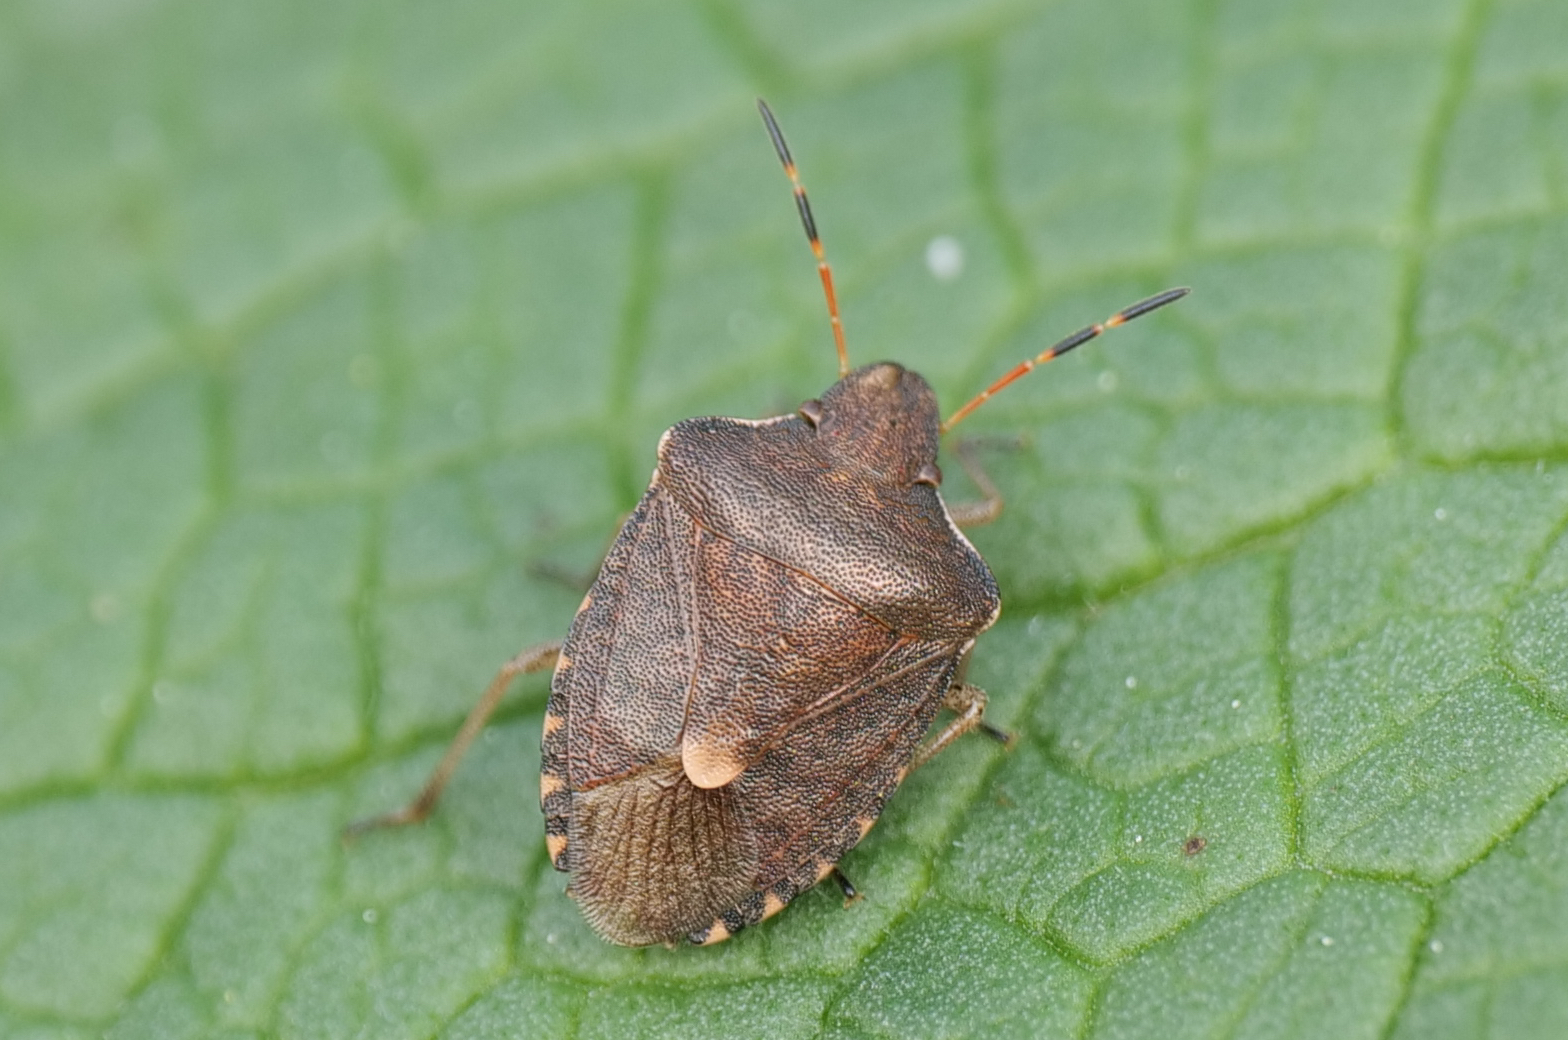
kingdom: Animalia
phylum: Arthropoda
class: Insecta
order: Hemiptera
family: Pentatomidae
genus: Holcostethus
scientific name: Holcostethus strictus
